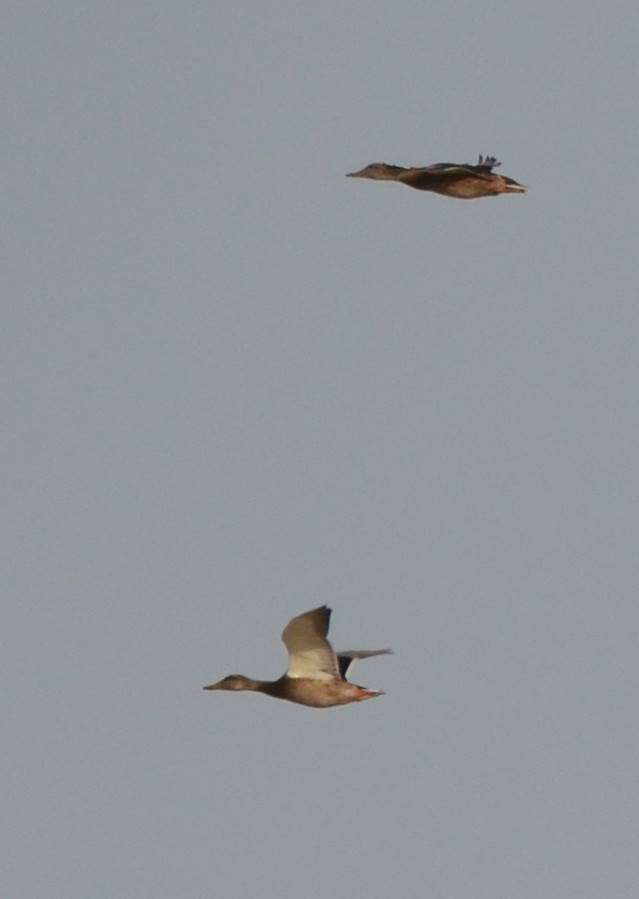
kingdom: Animalia
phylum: Chordata
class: Aves
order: Anseriformes
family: Anatidae
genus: Anas
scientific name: Anas platyrhynchos
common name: Mallard
